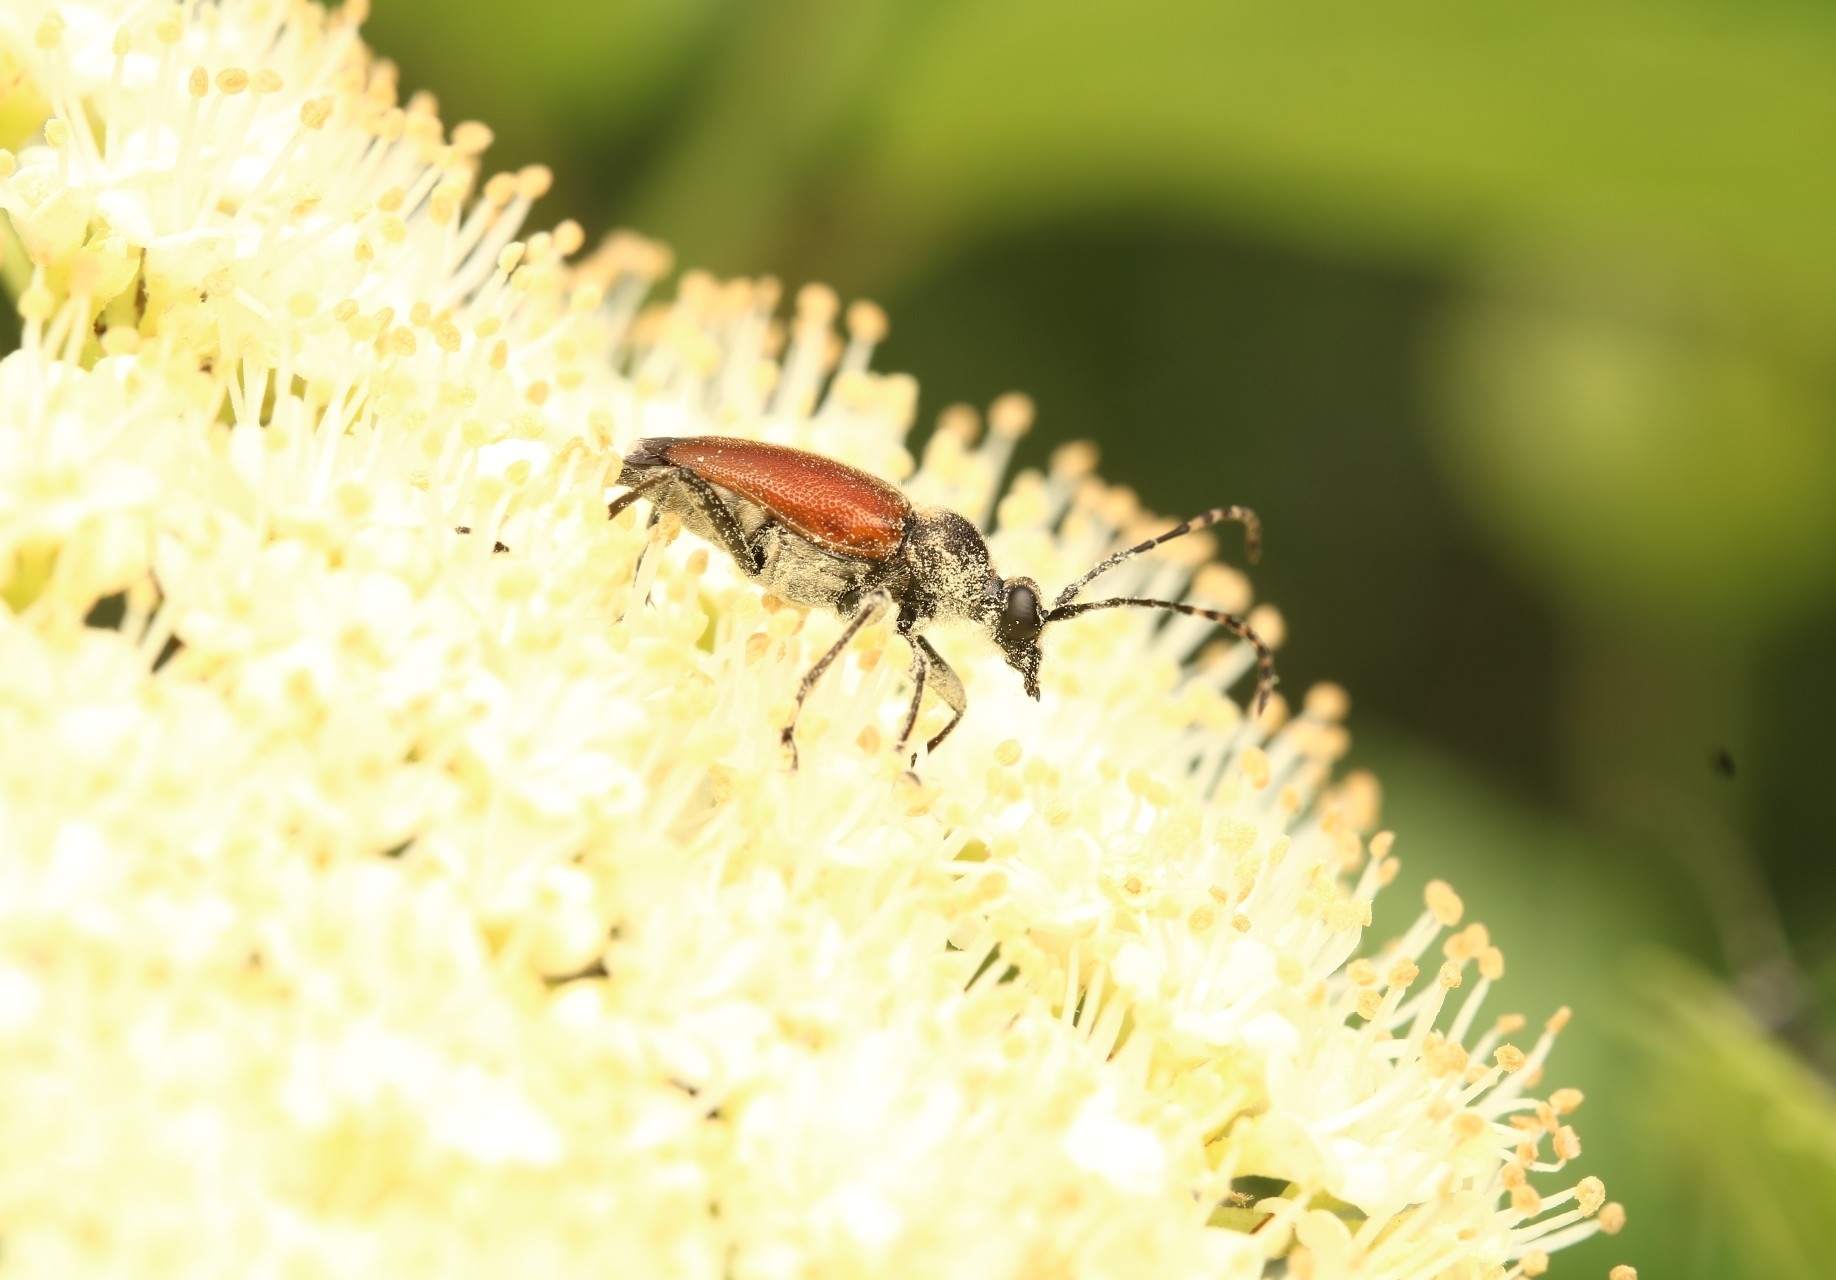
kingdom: Animalia
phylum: Arthropoda
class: Insecta
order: Coleoptera
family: Cerambycidae
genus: Brachyleptura
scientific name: Brachyleptura rubrica
